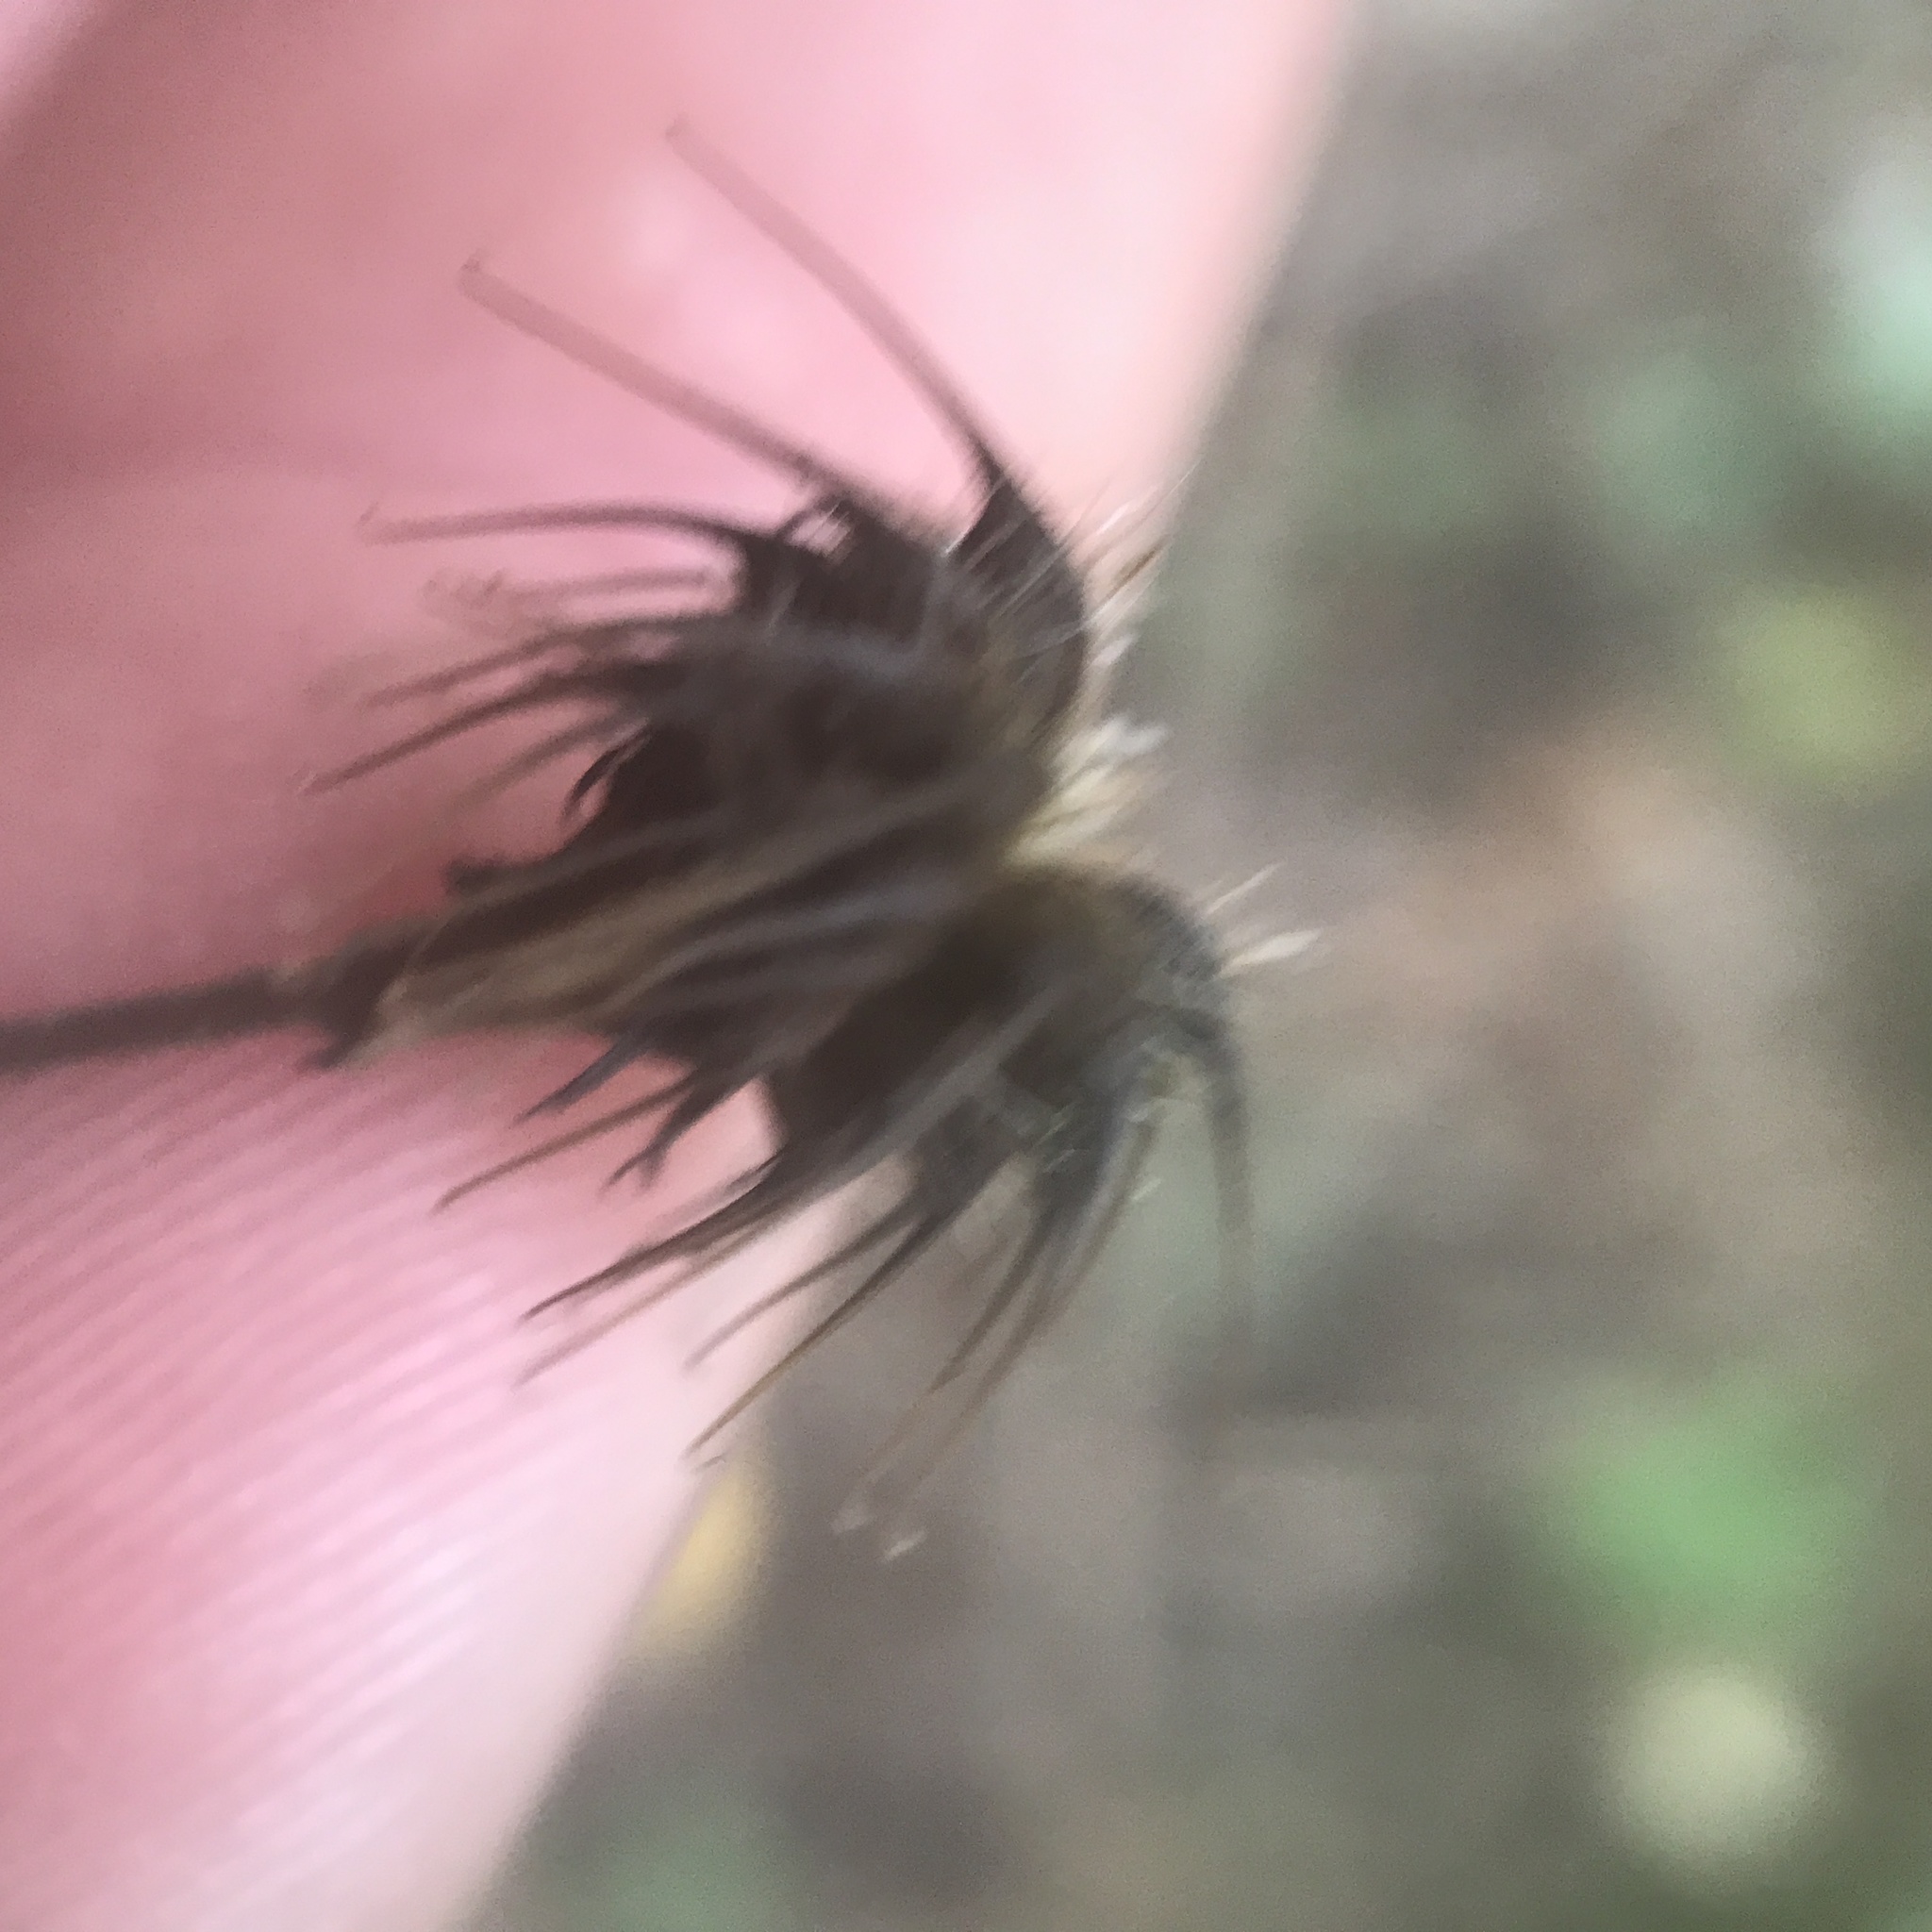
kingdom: Plantae
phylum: Tracheophyta
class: Magnoliopsida
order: Rosales
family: Rosaceae
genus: Geum
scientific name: Geum canadense
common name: White avens
